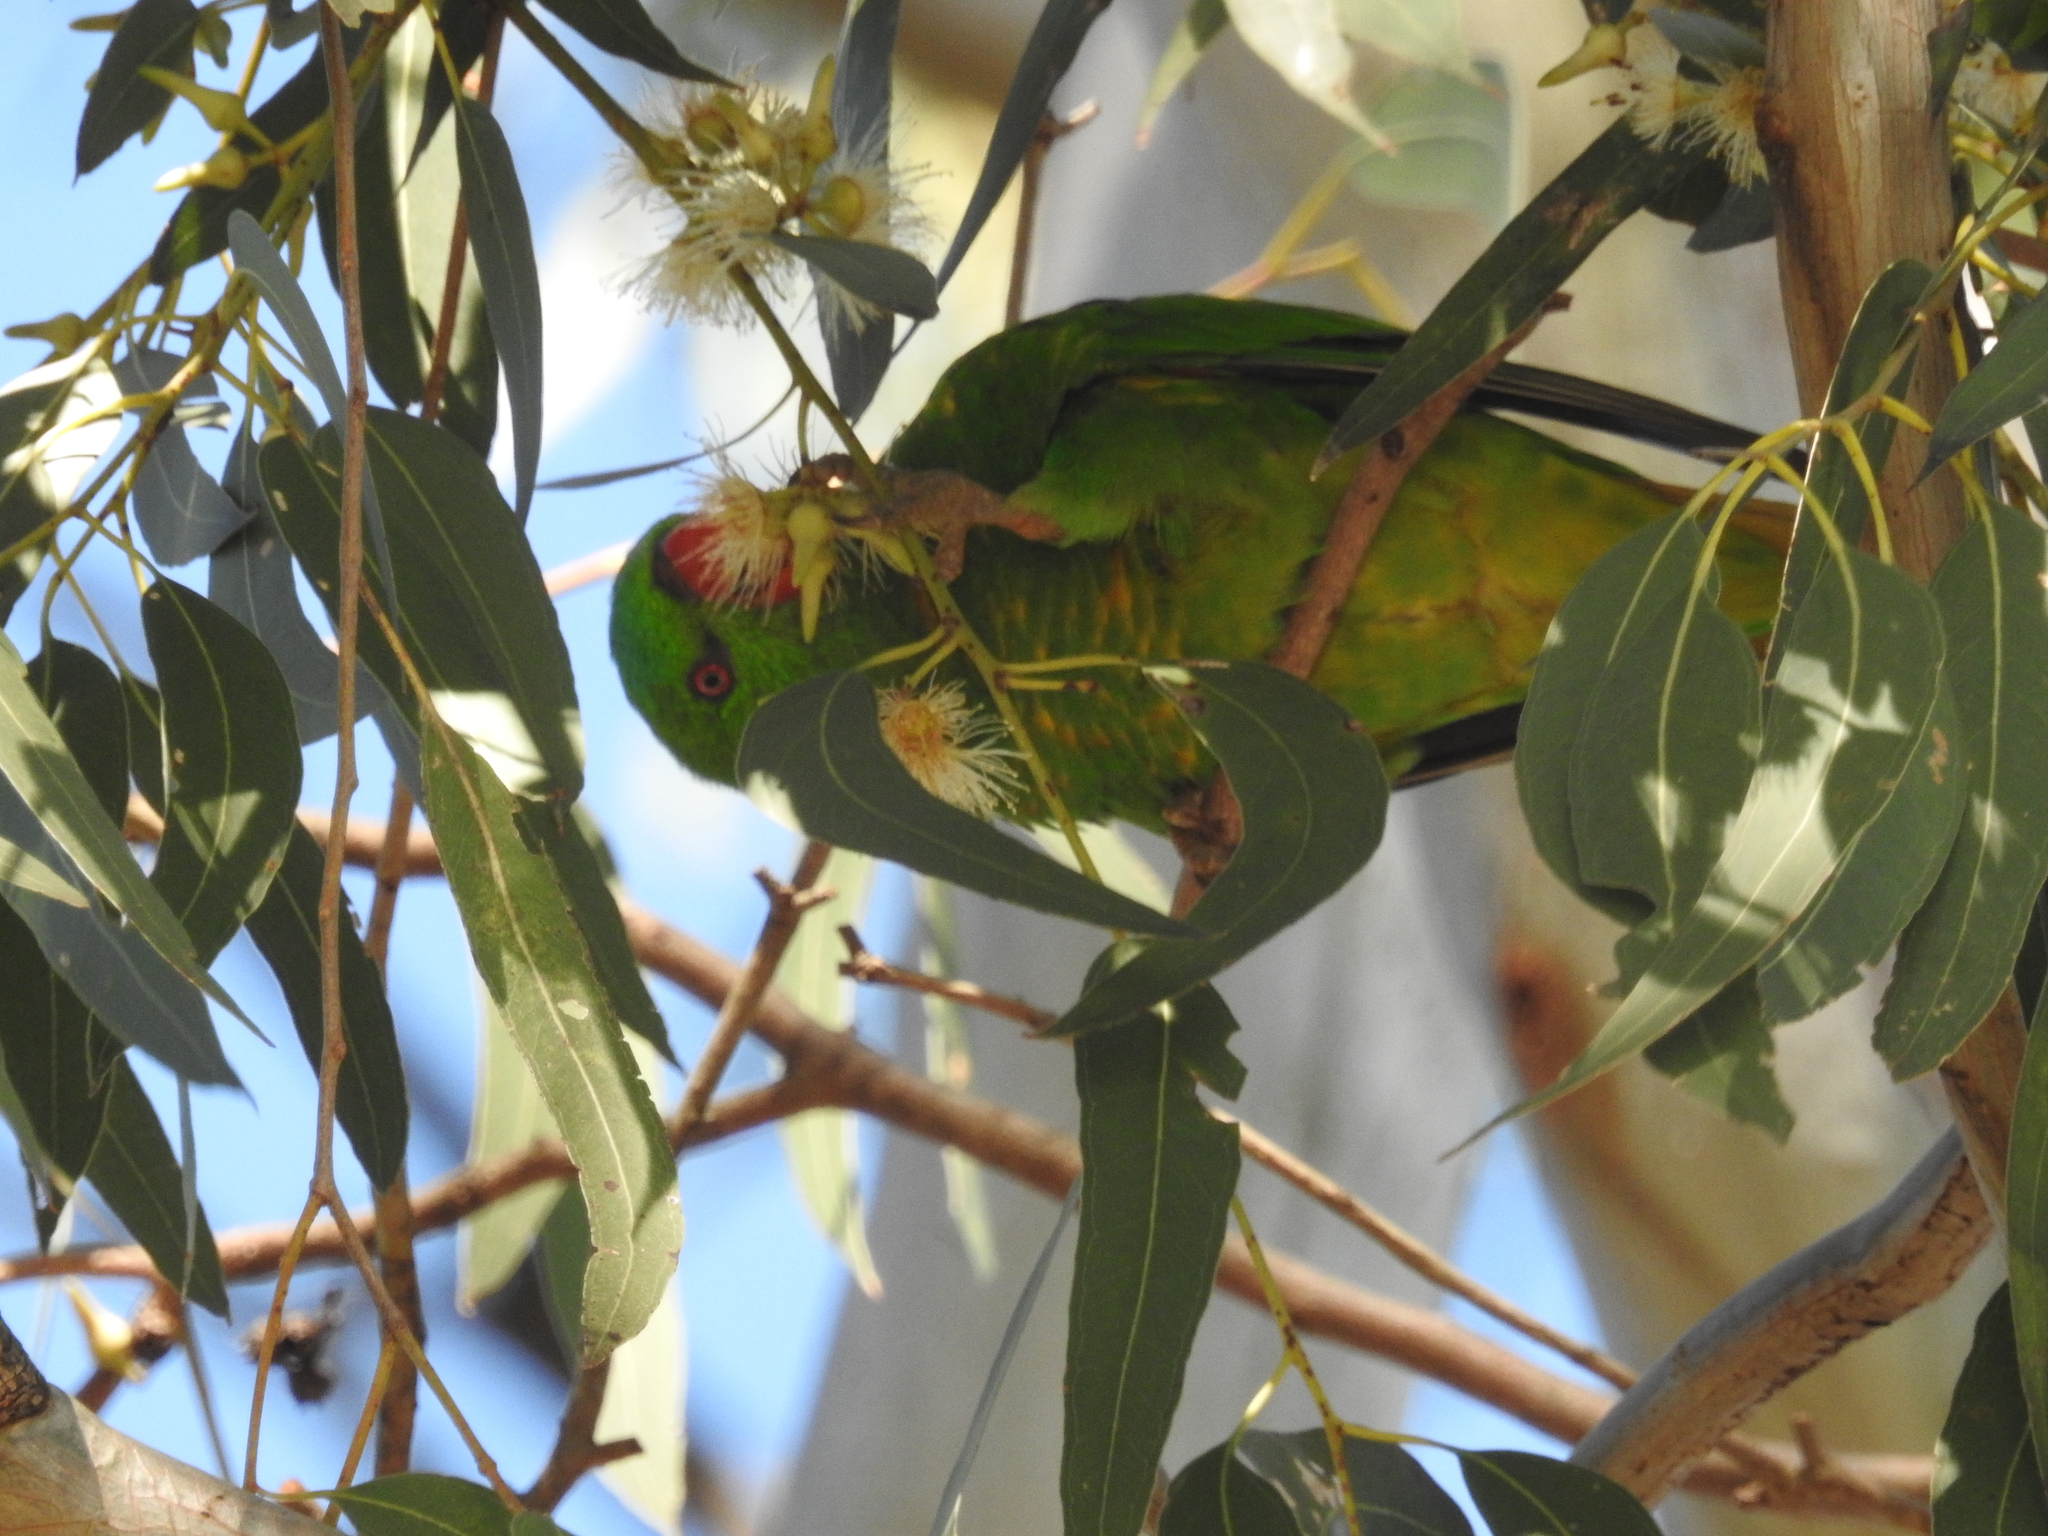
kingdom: Animalia
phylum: Chordata
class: Aves
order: Psittaciformes
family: Psittacidae
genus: Trichoglossus
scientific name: Trichoglossus chlorolepidotus
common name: Scaly-breasted lorikeet
